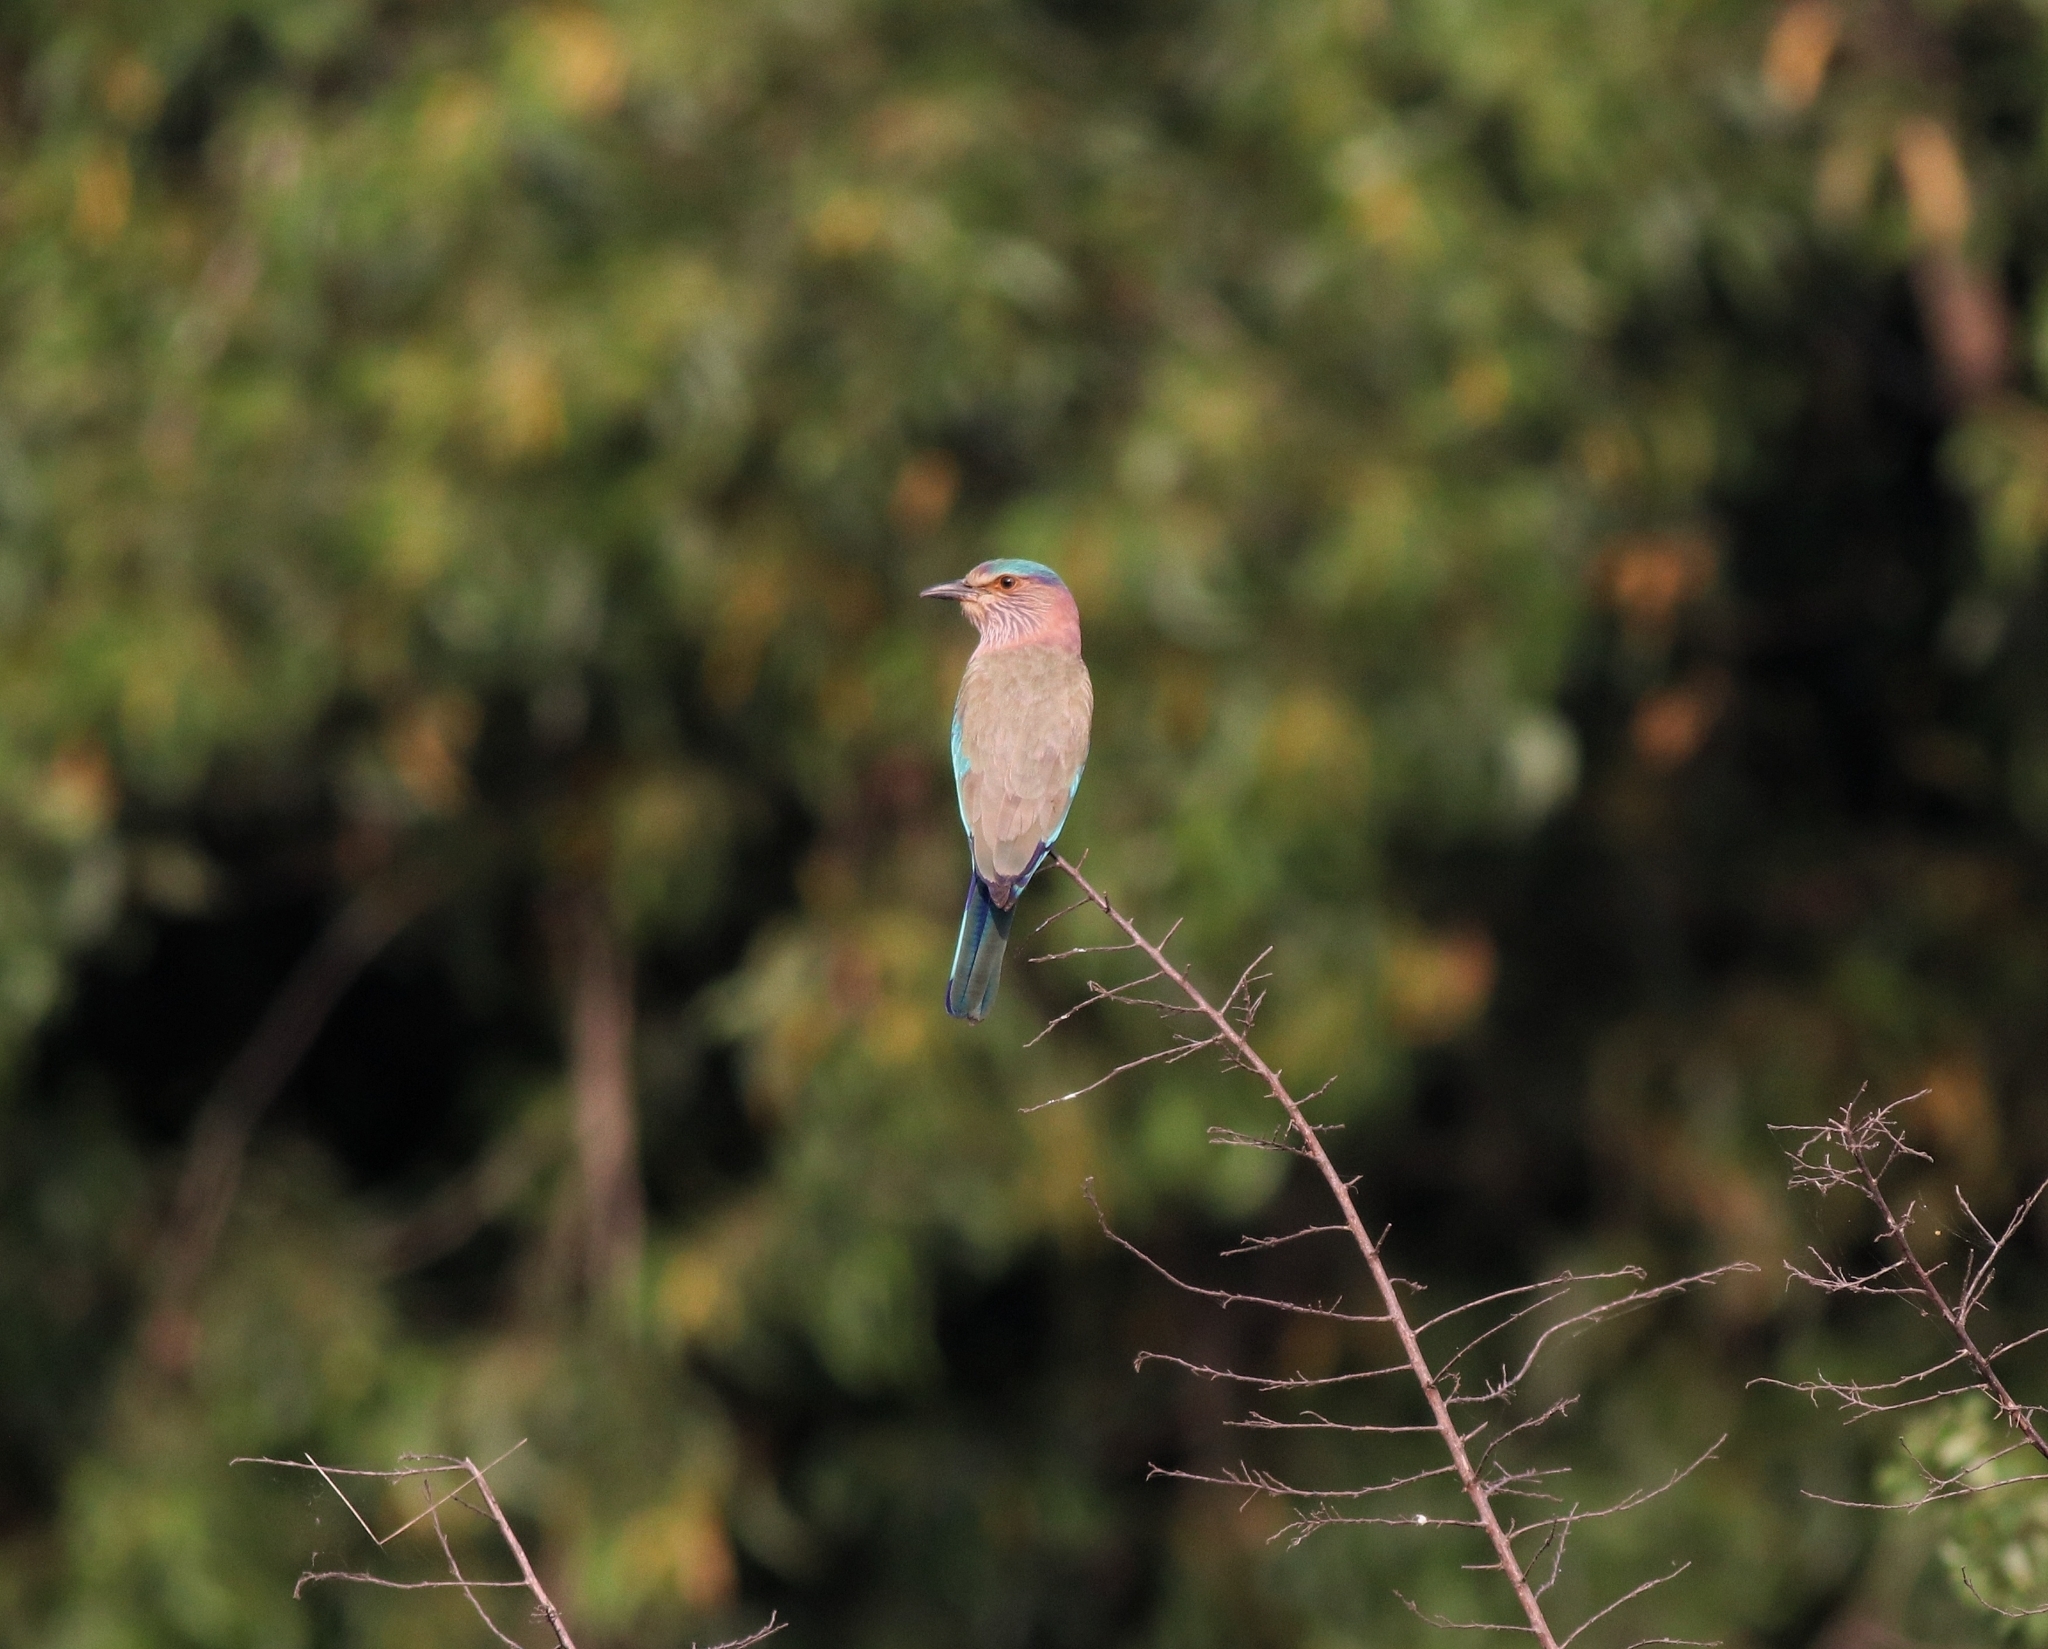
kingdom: Animalia
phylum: Chordata
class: Aves
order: Coraciiformes
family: Coraciidae
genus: Coracias
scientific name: Coracias benghalensis
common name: Indian roller
